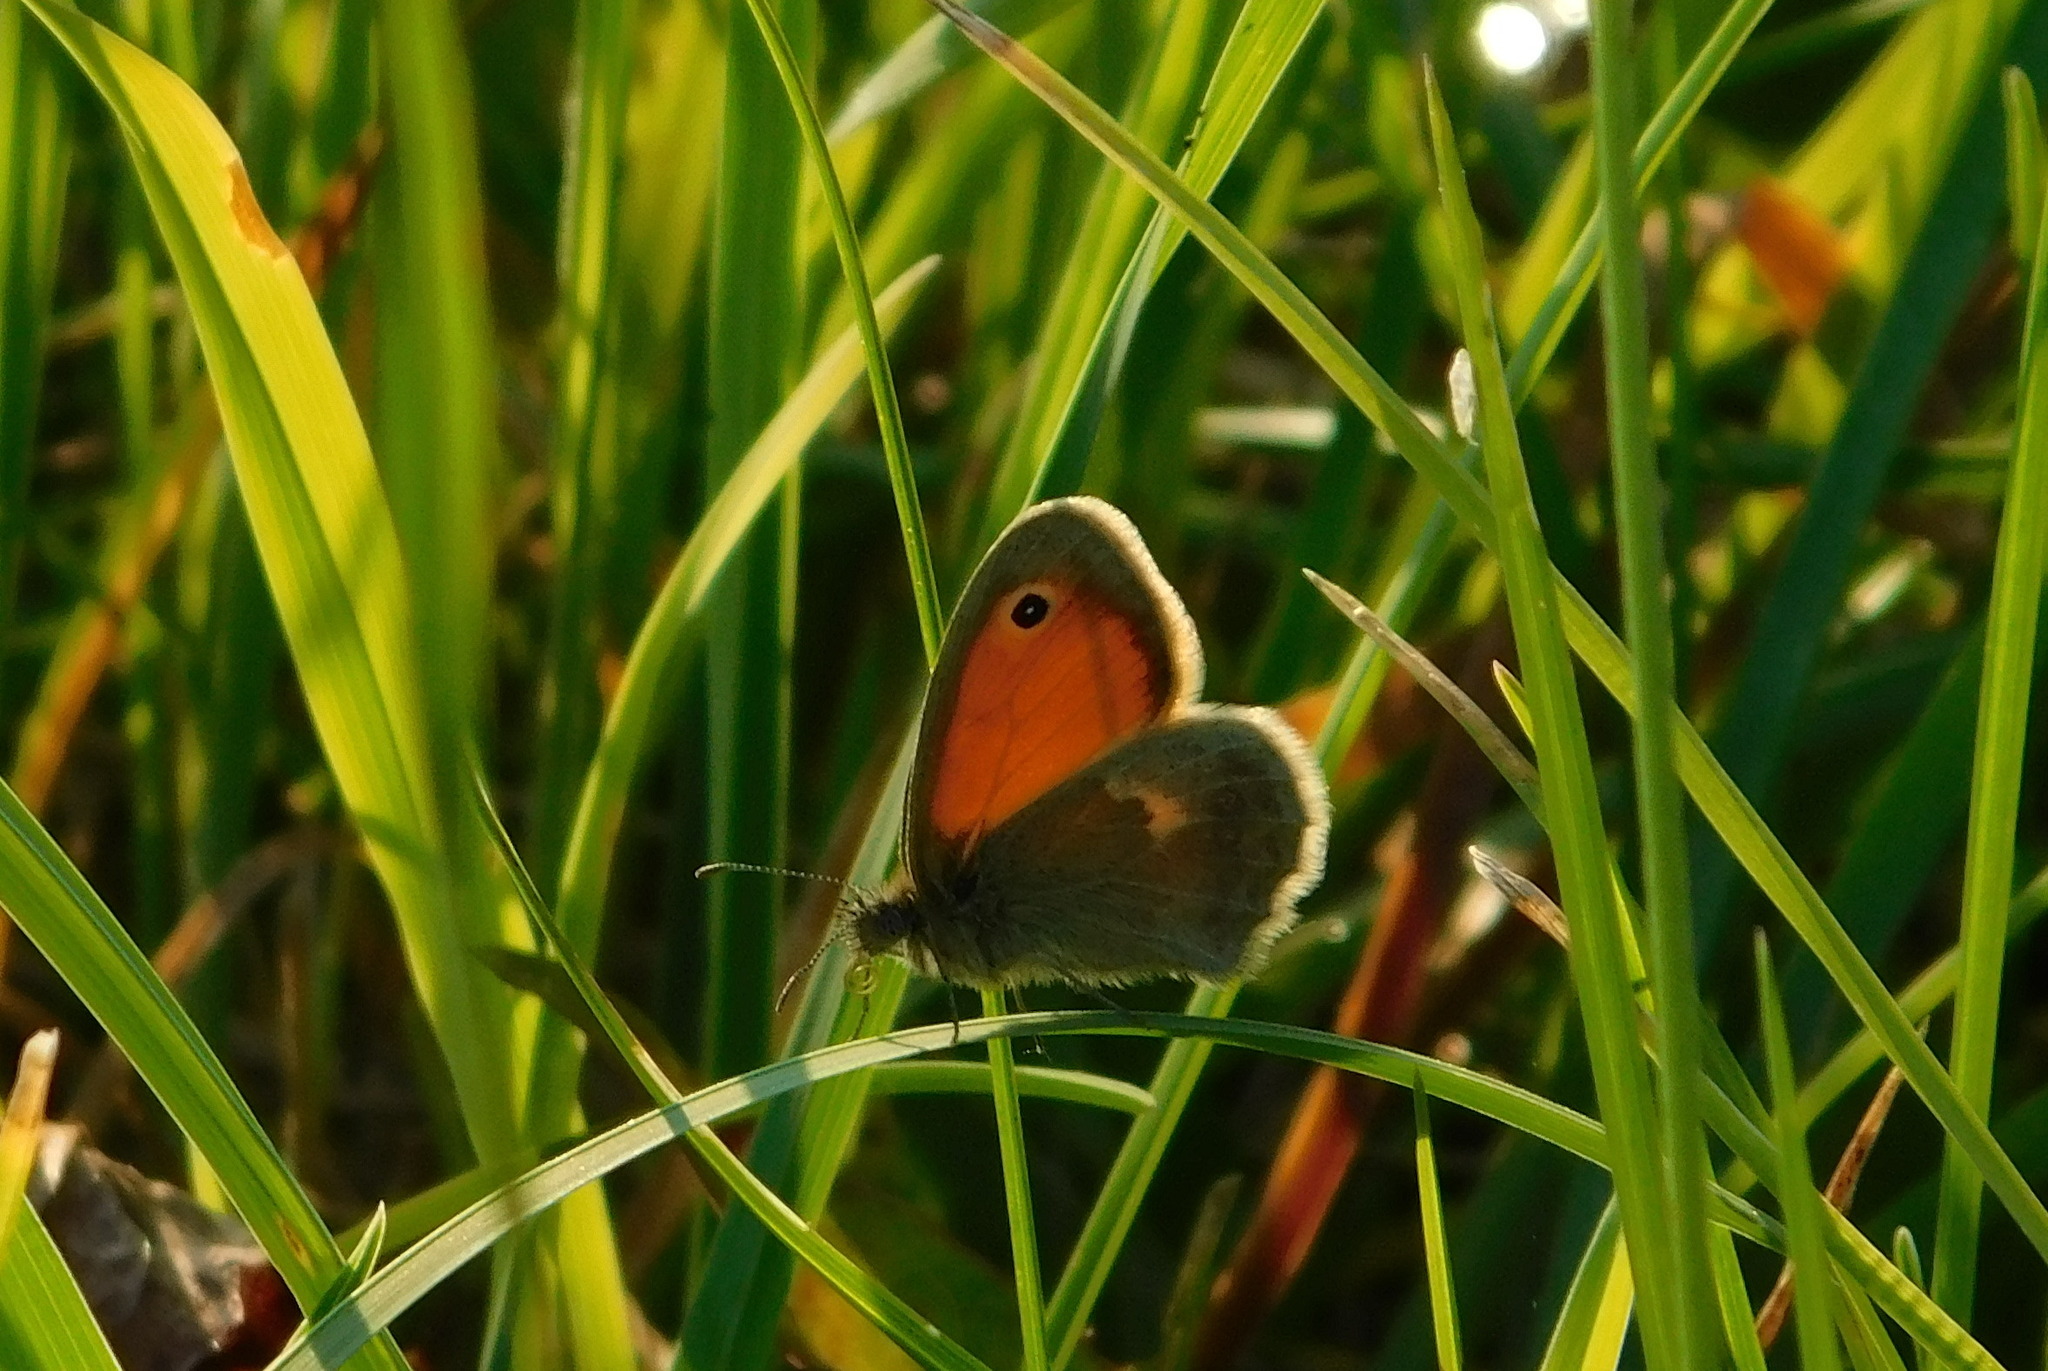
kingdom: Animalia
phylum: Arthropoda
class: Insecta
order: Lepidoptera
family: Nymphalidae
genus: Coenonympha
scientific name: Coenonympha pamphilus
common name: Small heath
